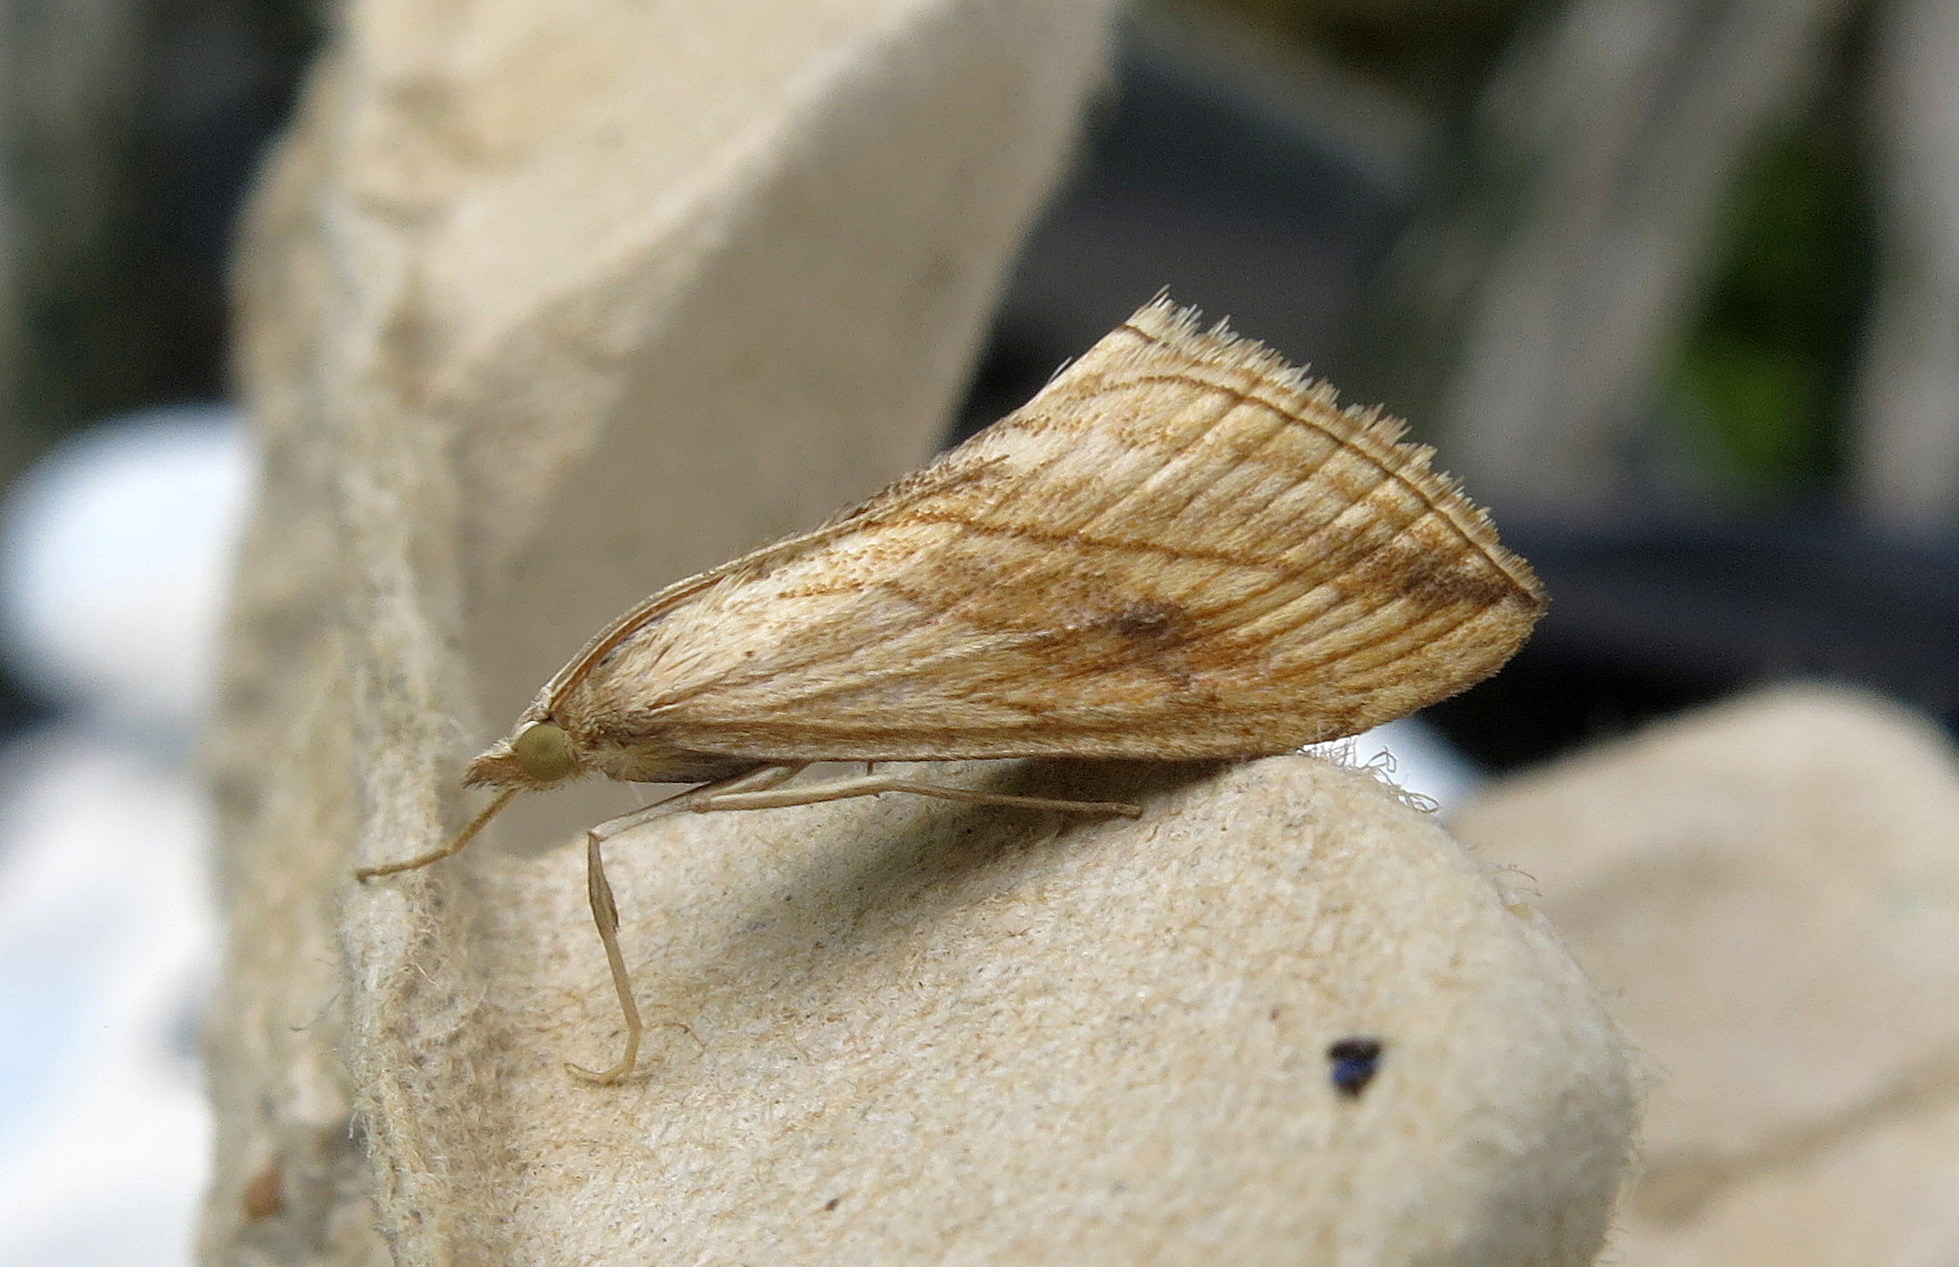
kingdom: Animalia
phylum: Arthropoda
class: Insecta
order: Lepidoptera
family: Crambidae
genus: Evergestis
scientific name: Evergestis forficalis
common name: Garden pebble
